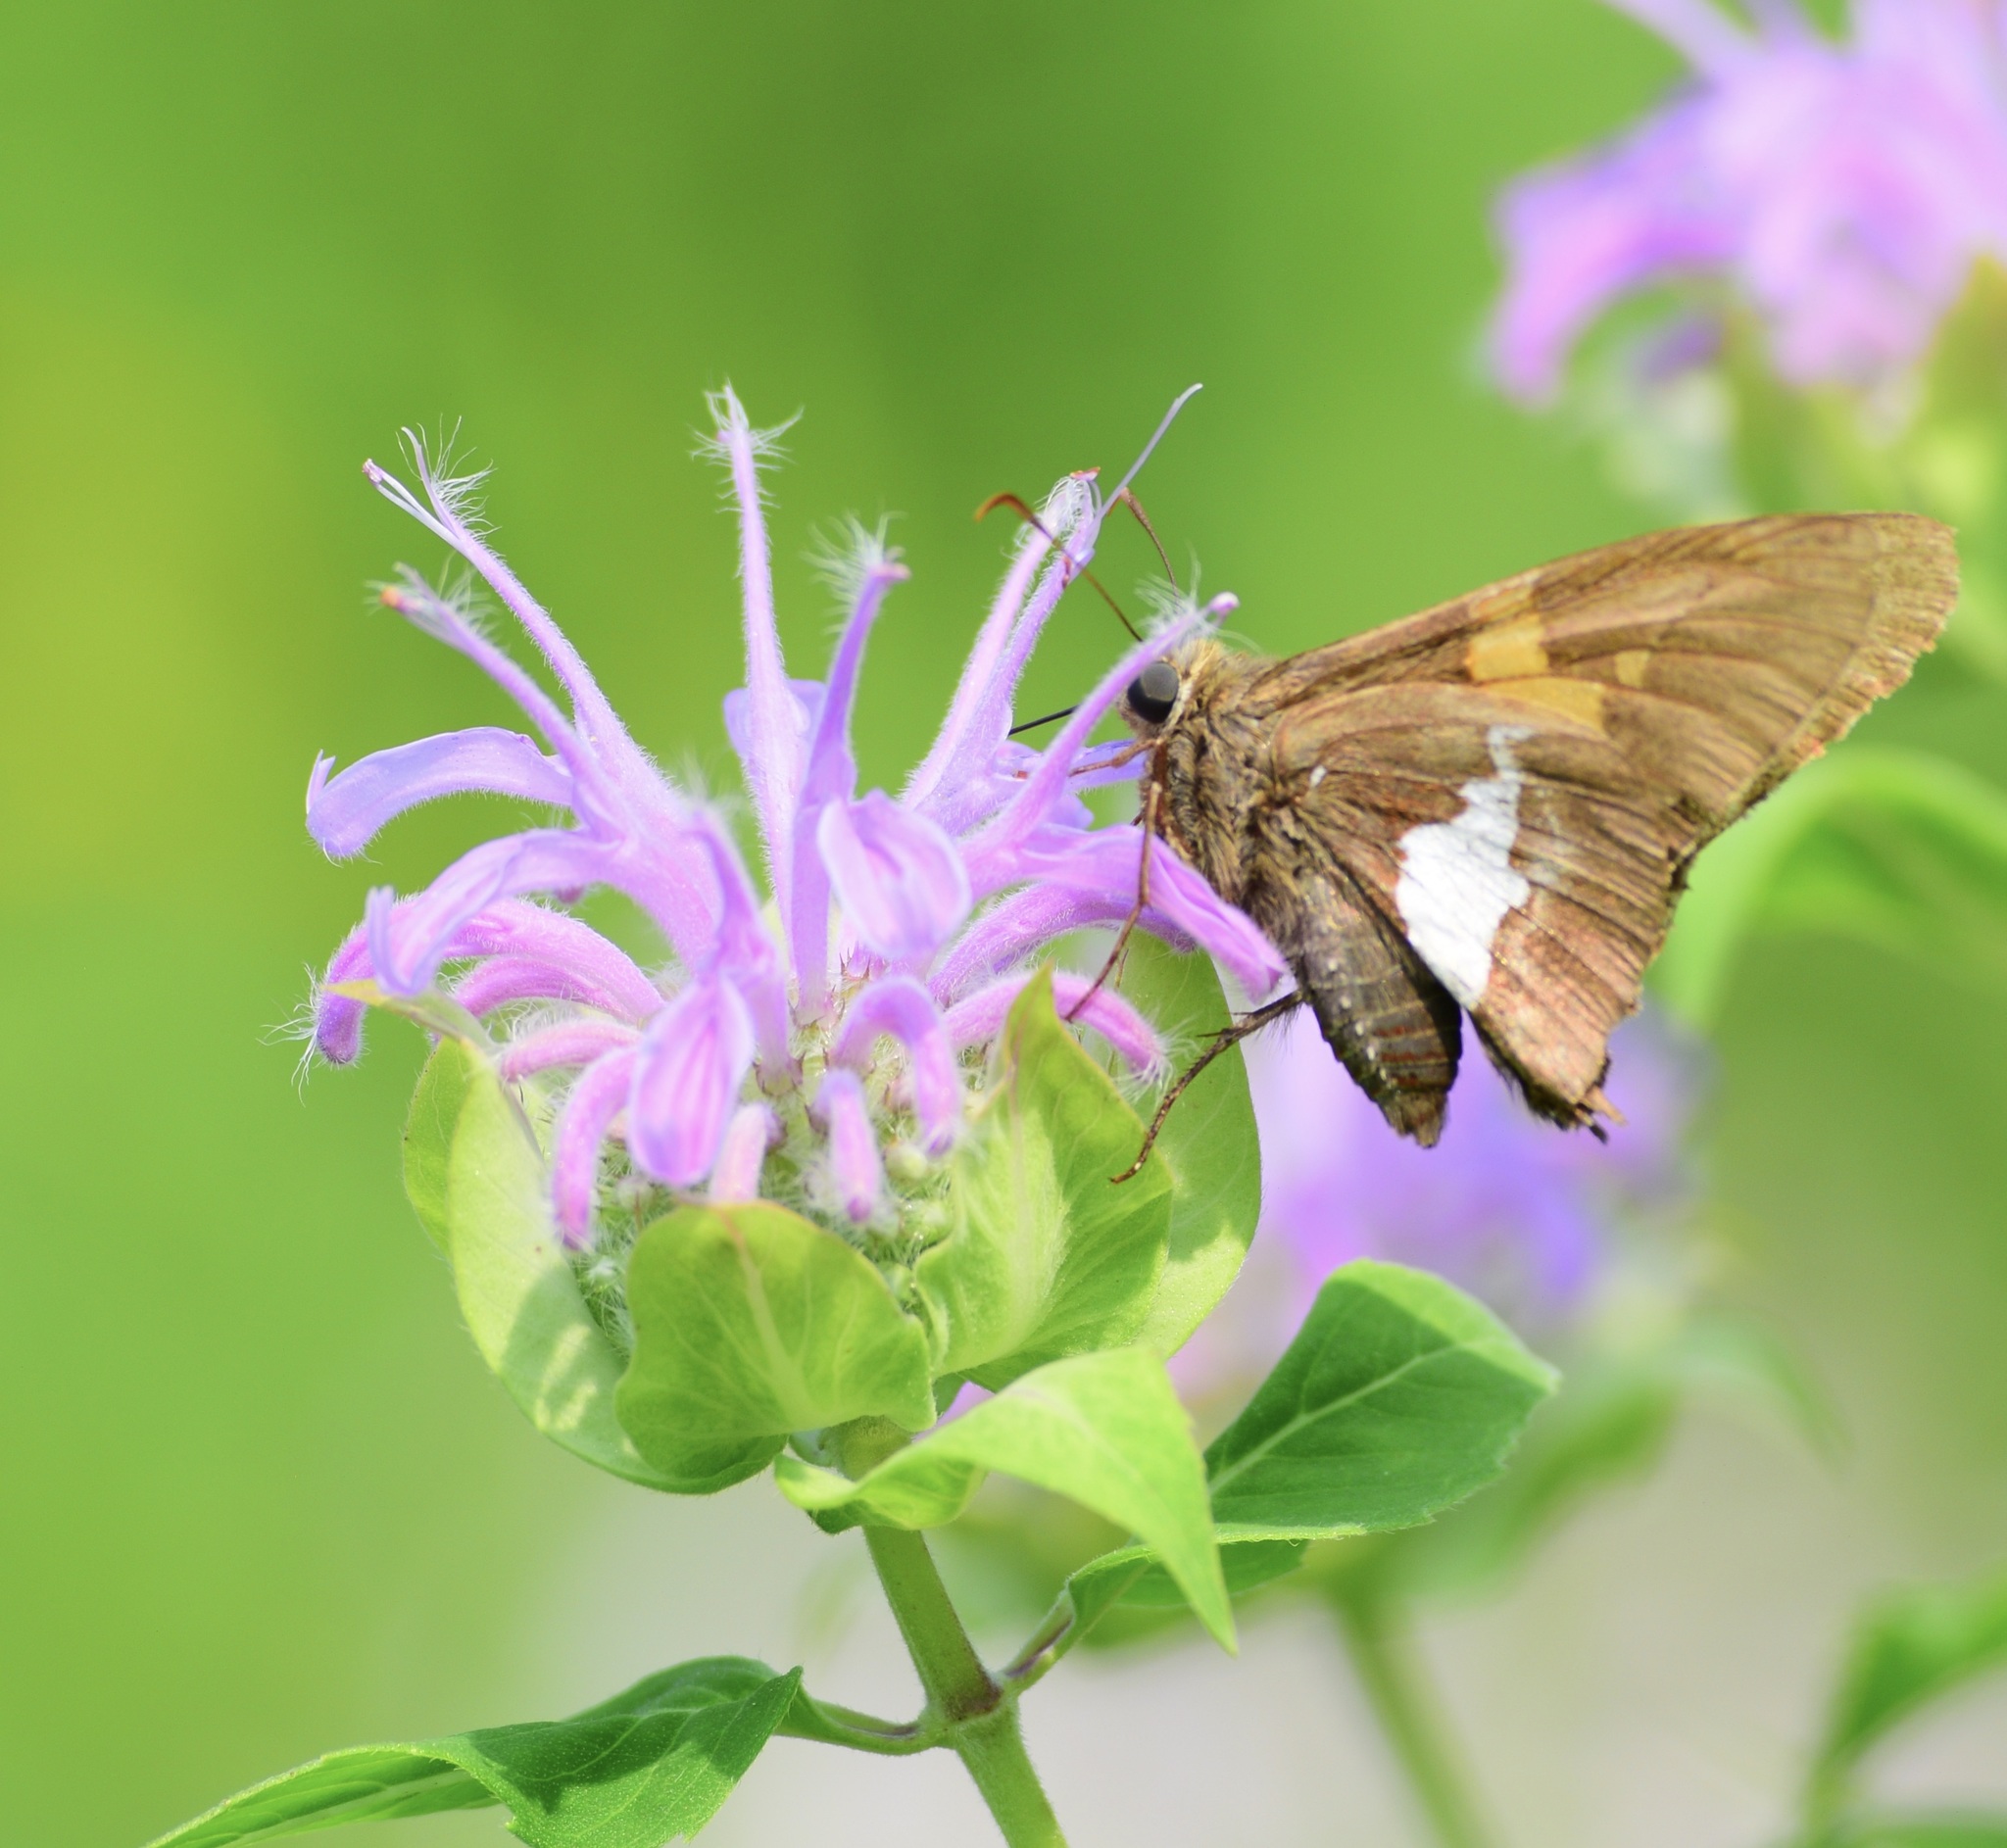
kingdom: Animalia
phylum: Arthropoda
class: Insecta
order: Lepidoptera
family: Hesperiidae
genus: Epargyreus
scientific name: Epargyreus clarus
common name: Silver-spotted skipper
